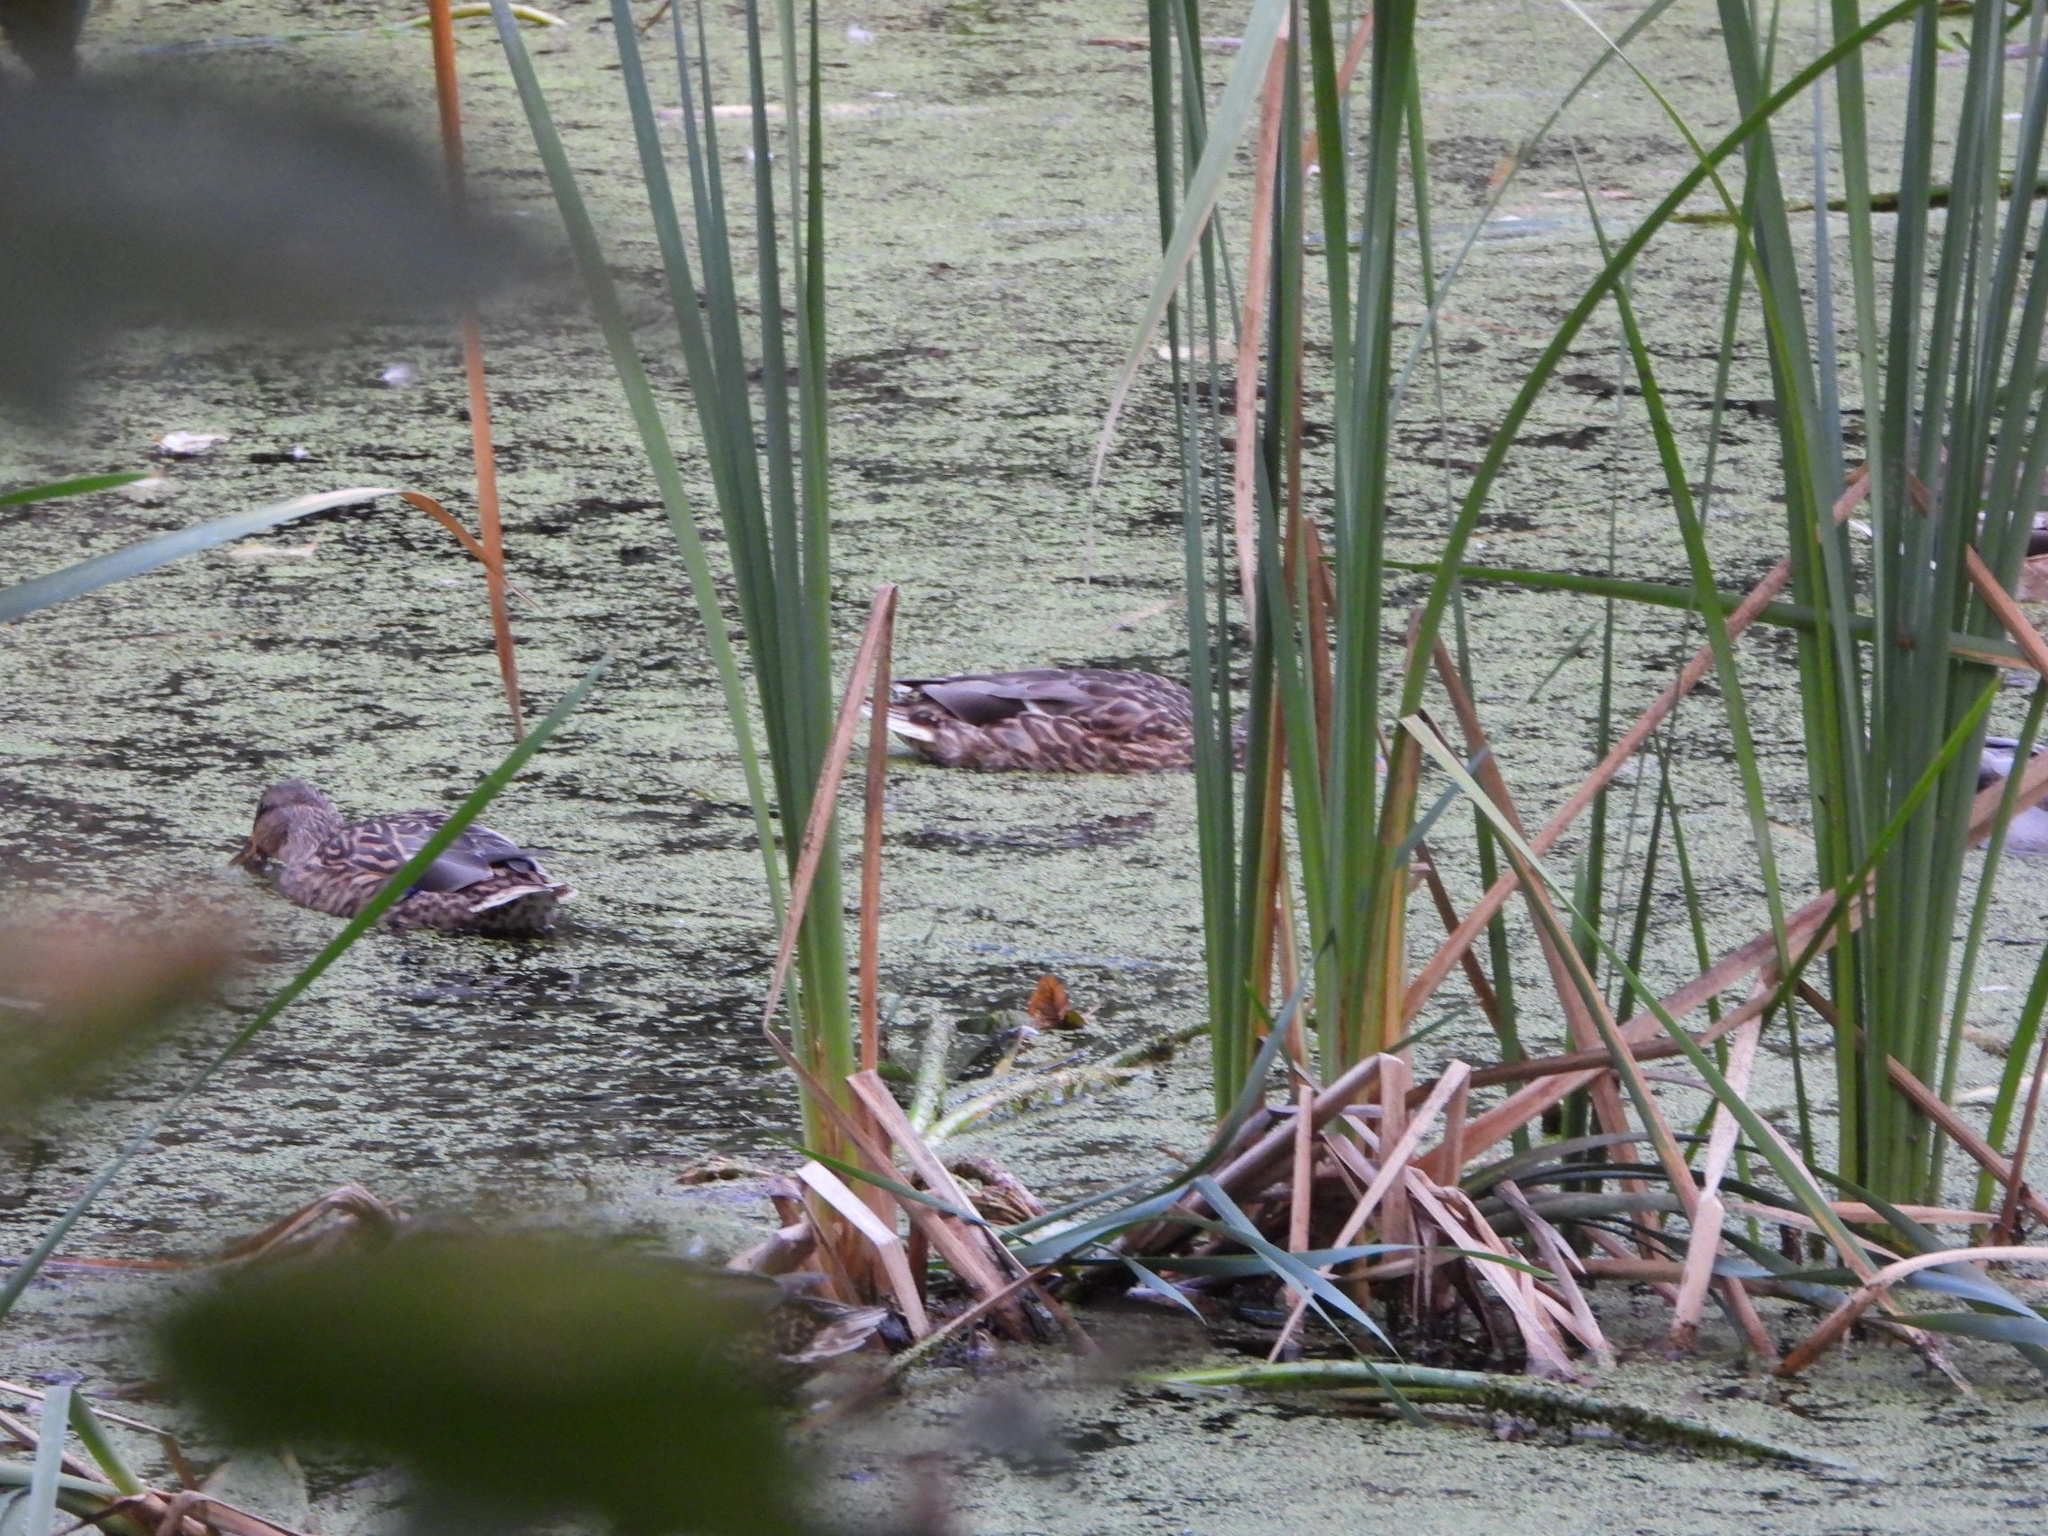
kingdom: Animalia
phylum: Chordata
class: Aves
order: Anseriformes
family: Anatidae
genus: Anas
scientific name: Anas platyrhynchos
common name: Mallard
